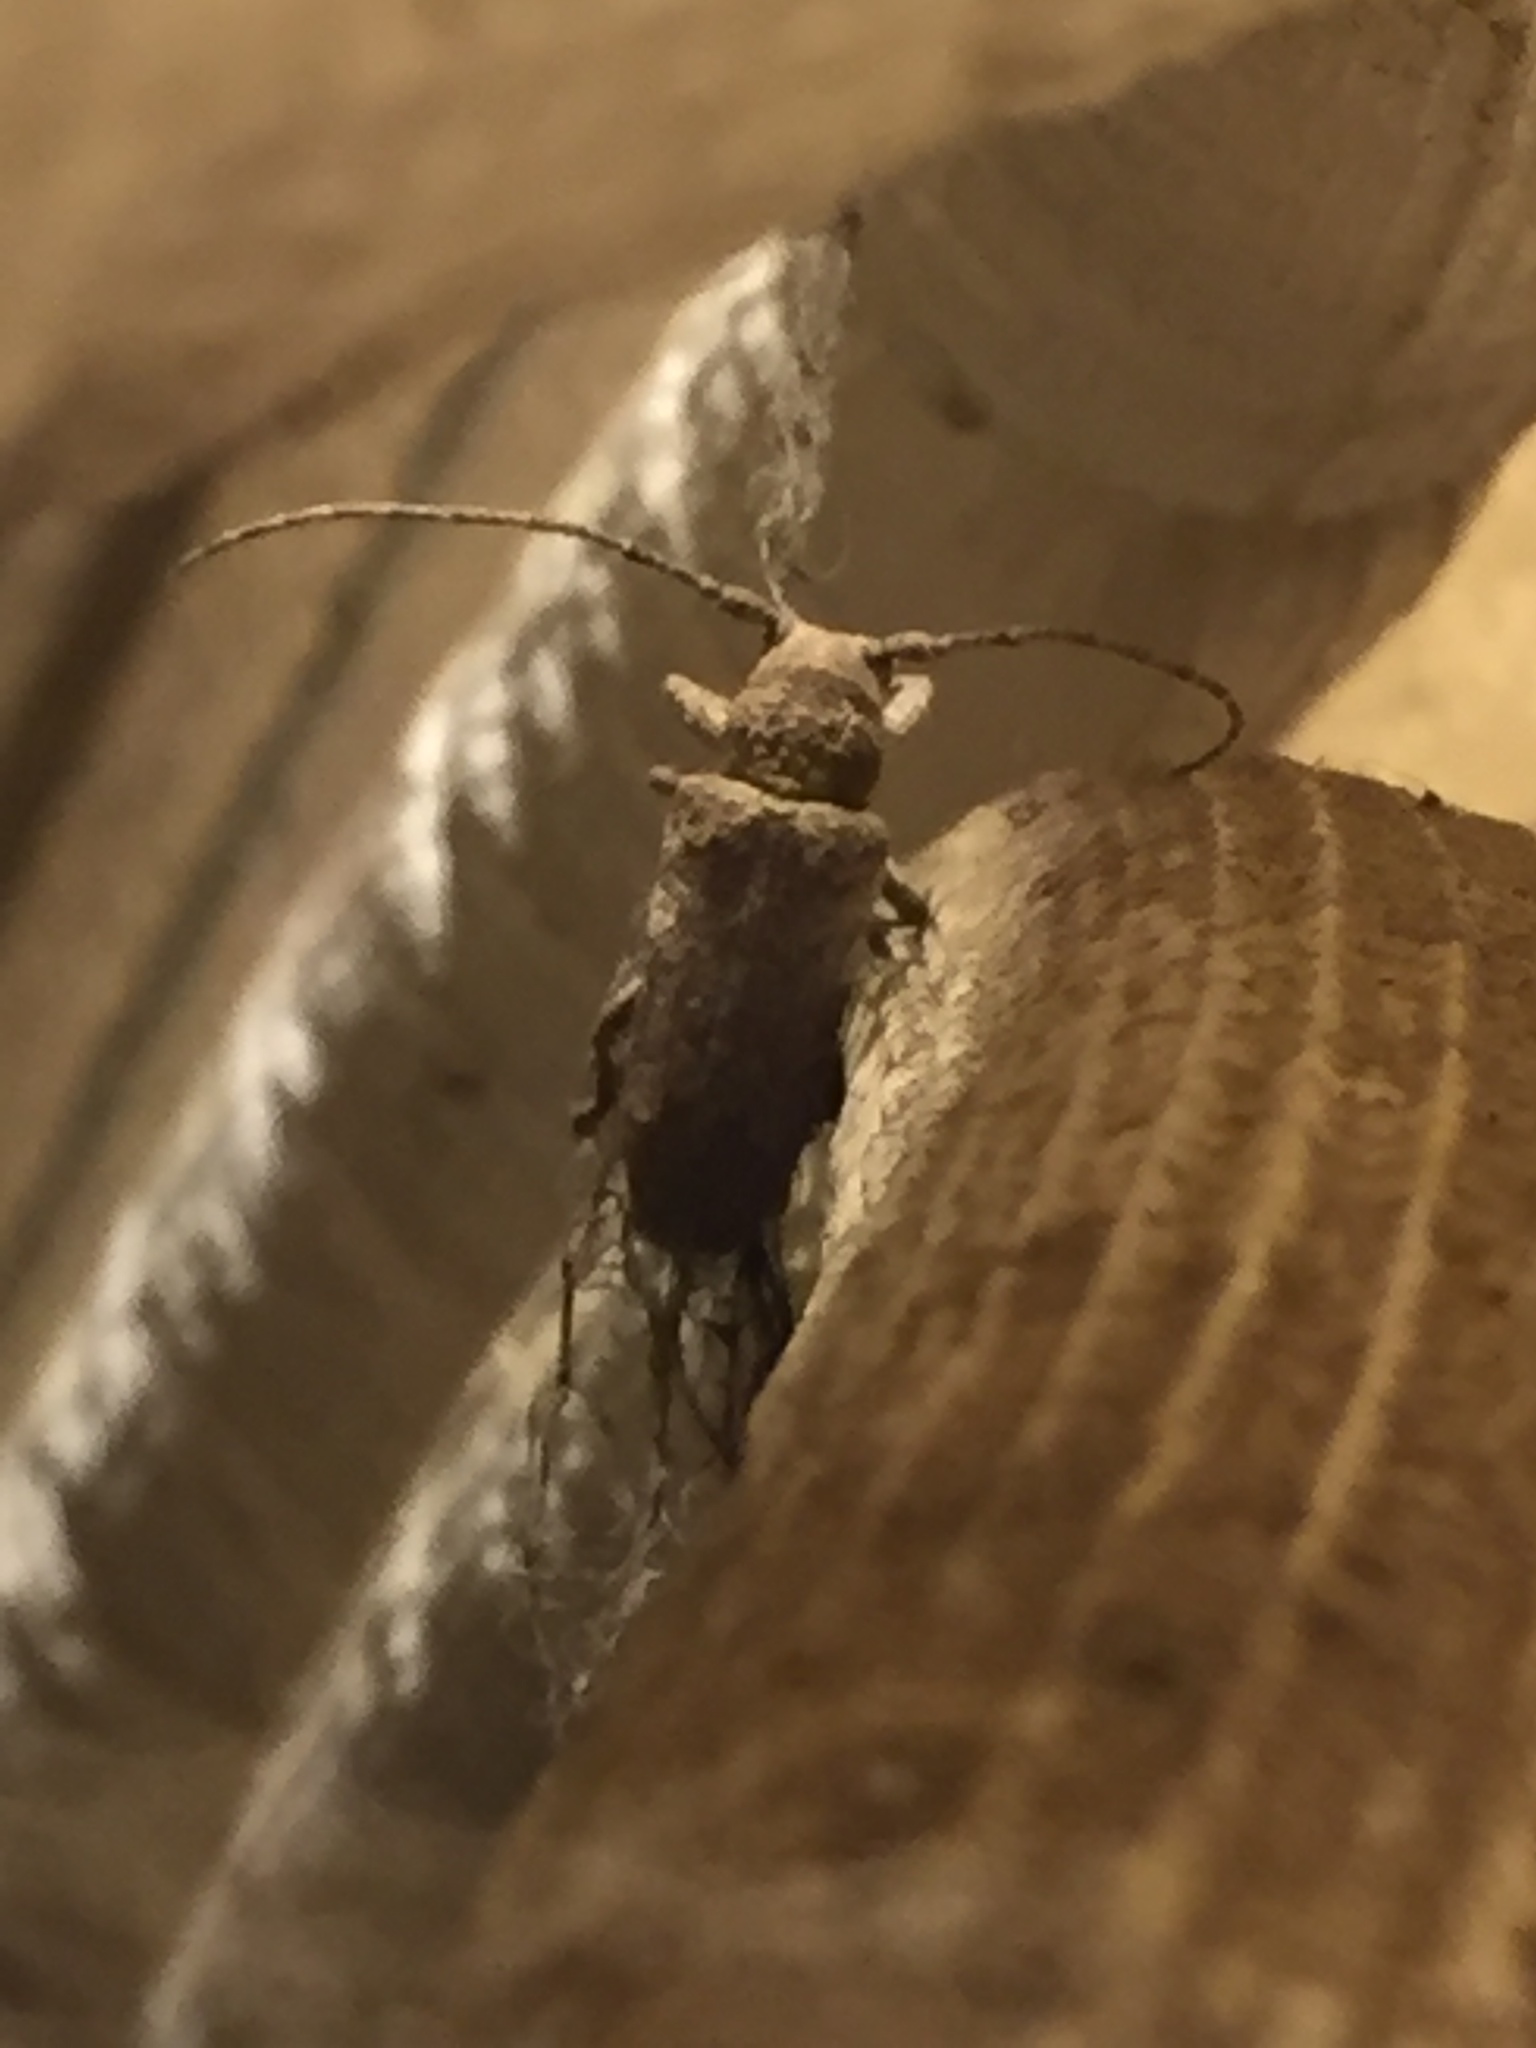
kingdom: Animalia
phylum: Arthropoda
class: Insecta
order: Coleoptera
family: Cerambycidae
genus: Niphona
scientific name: Niphona picticornis
